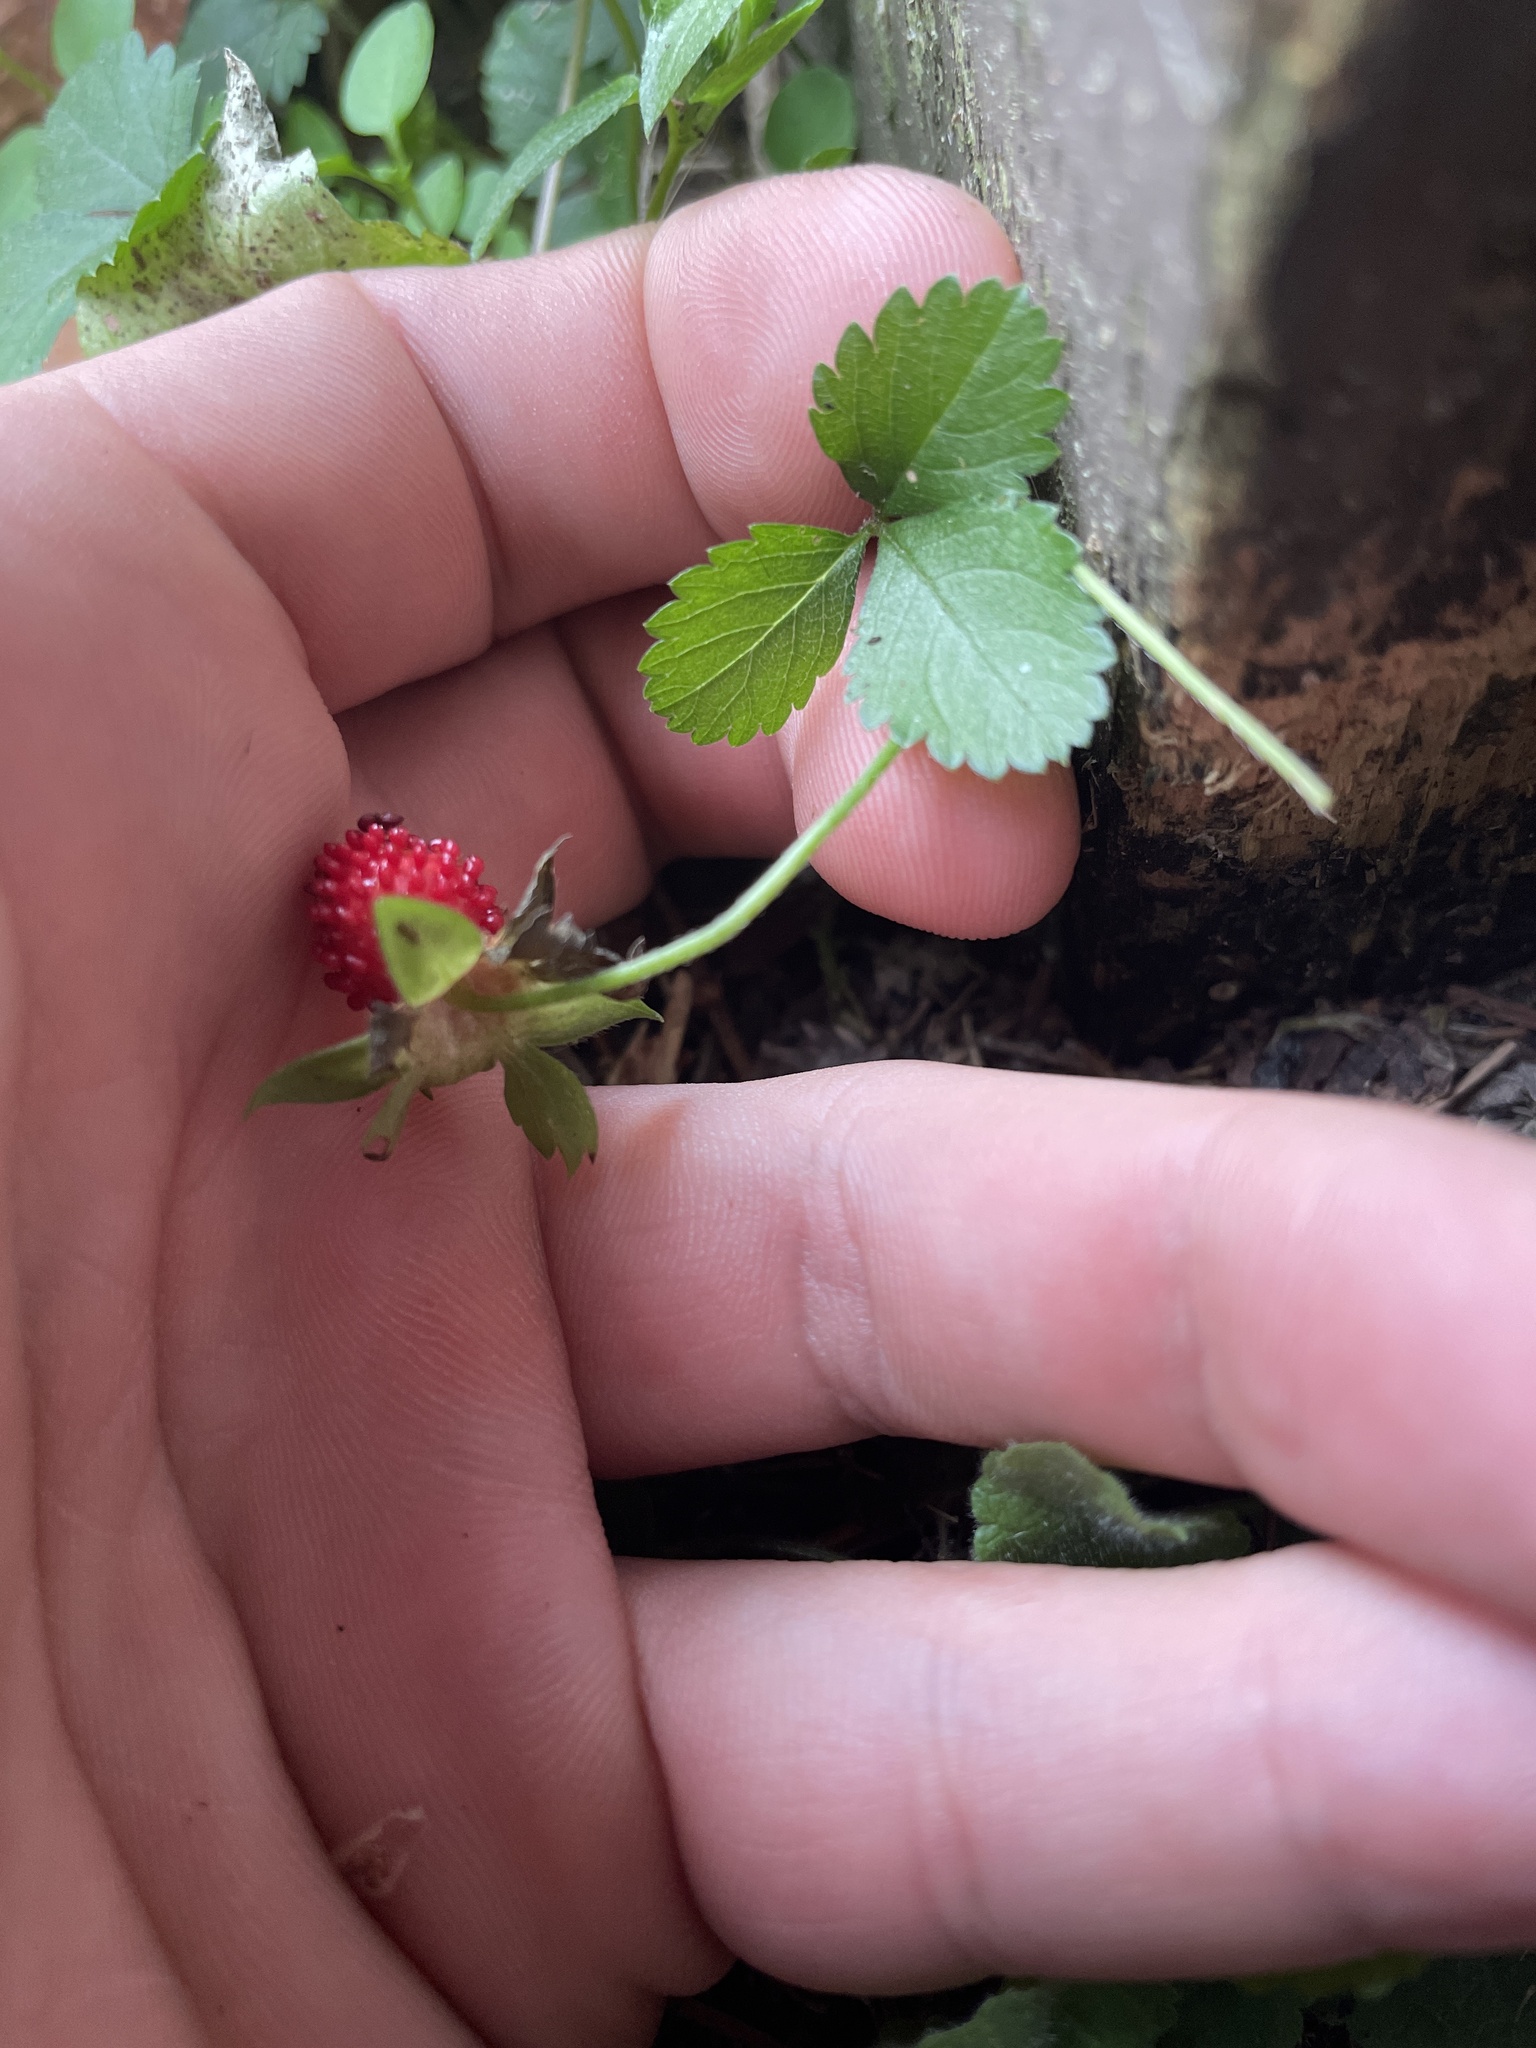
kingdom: Plantae
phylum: Tracheophyta
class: Magnoliopsida
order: Rosales
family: Rosaceae
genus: Potentilla
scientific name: Potentilla indica
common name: Yellow-flowered strawberry
